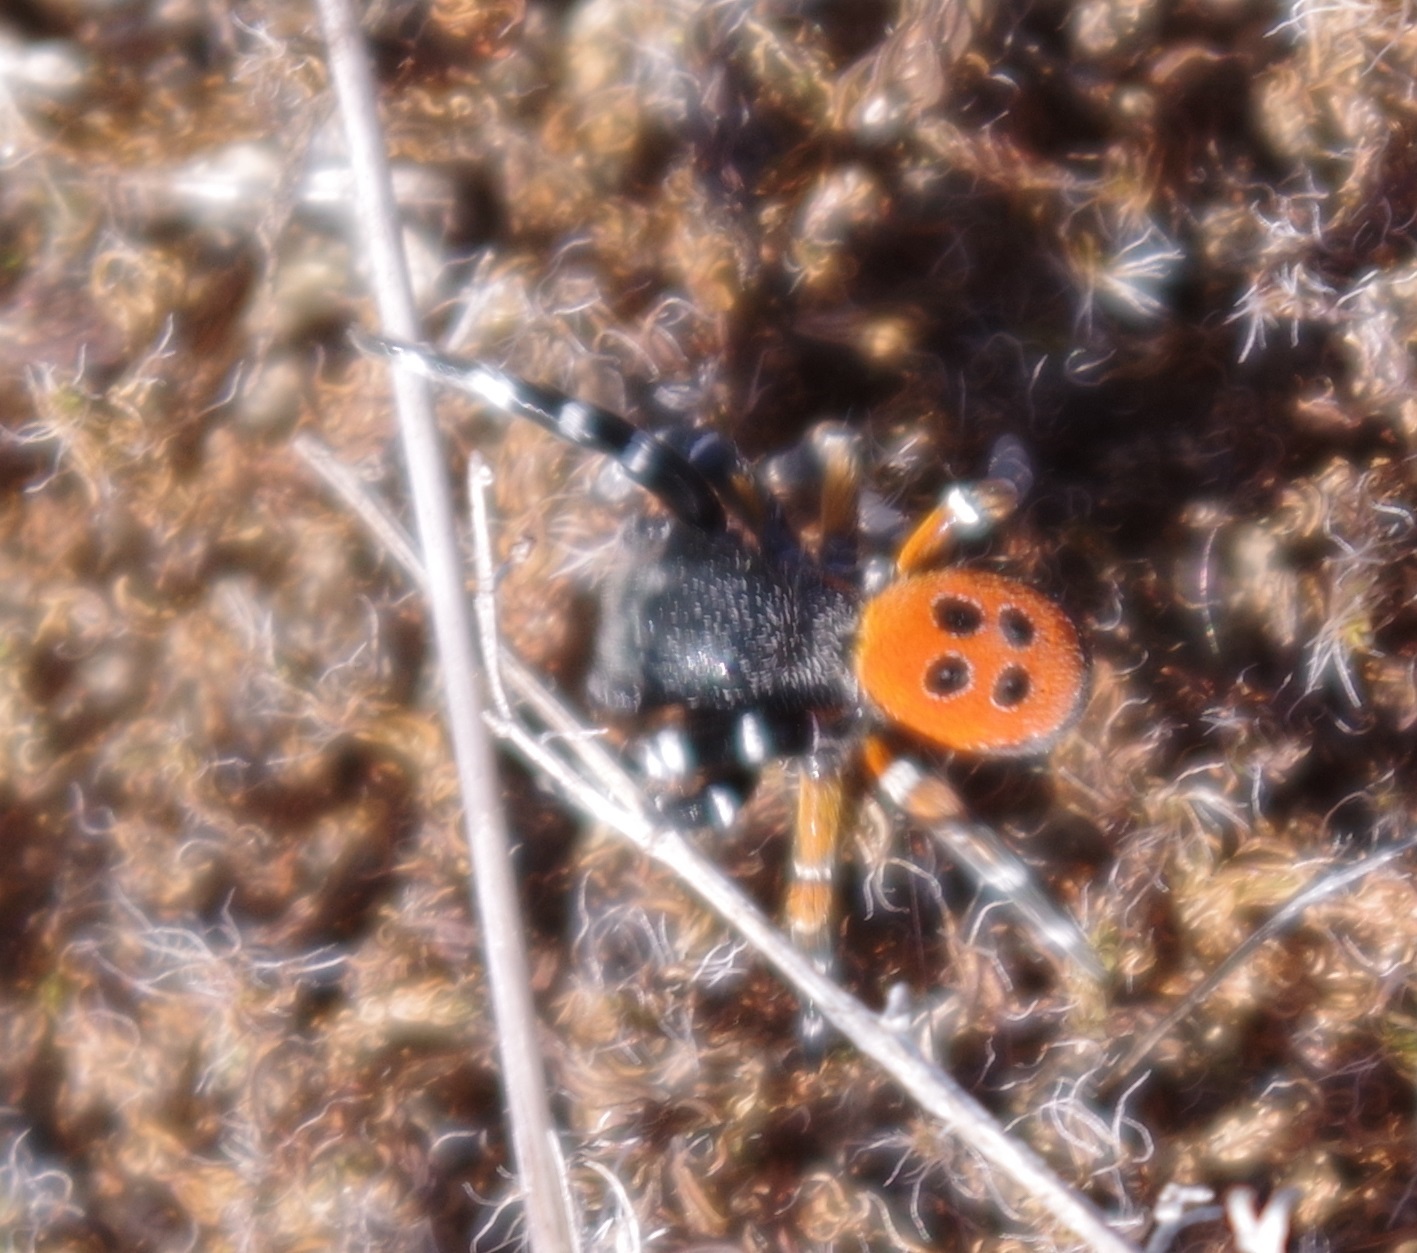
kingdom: Animalia
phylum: Arthropoda
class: Arachnida
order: Araneae
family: Eresidae
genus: Eresus
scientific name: Eresus kollari
